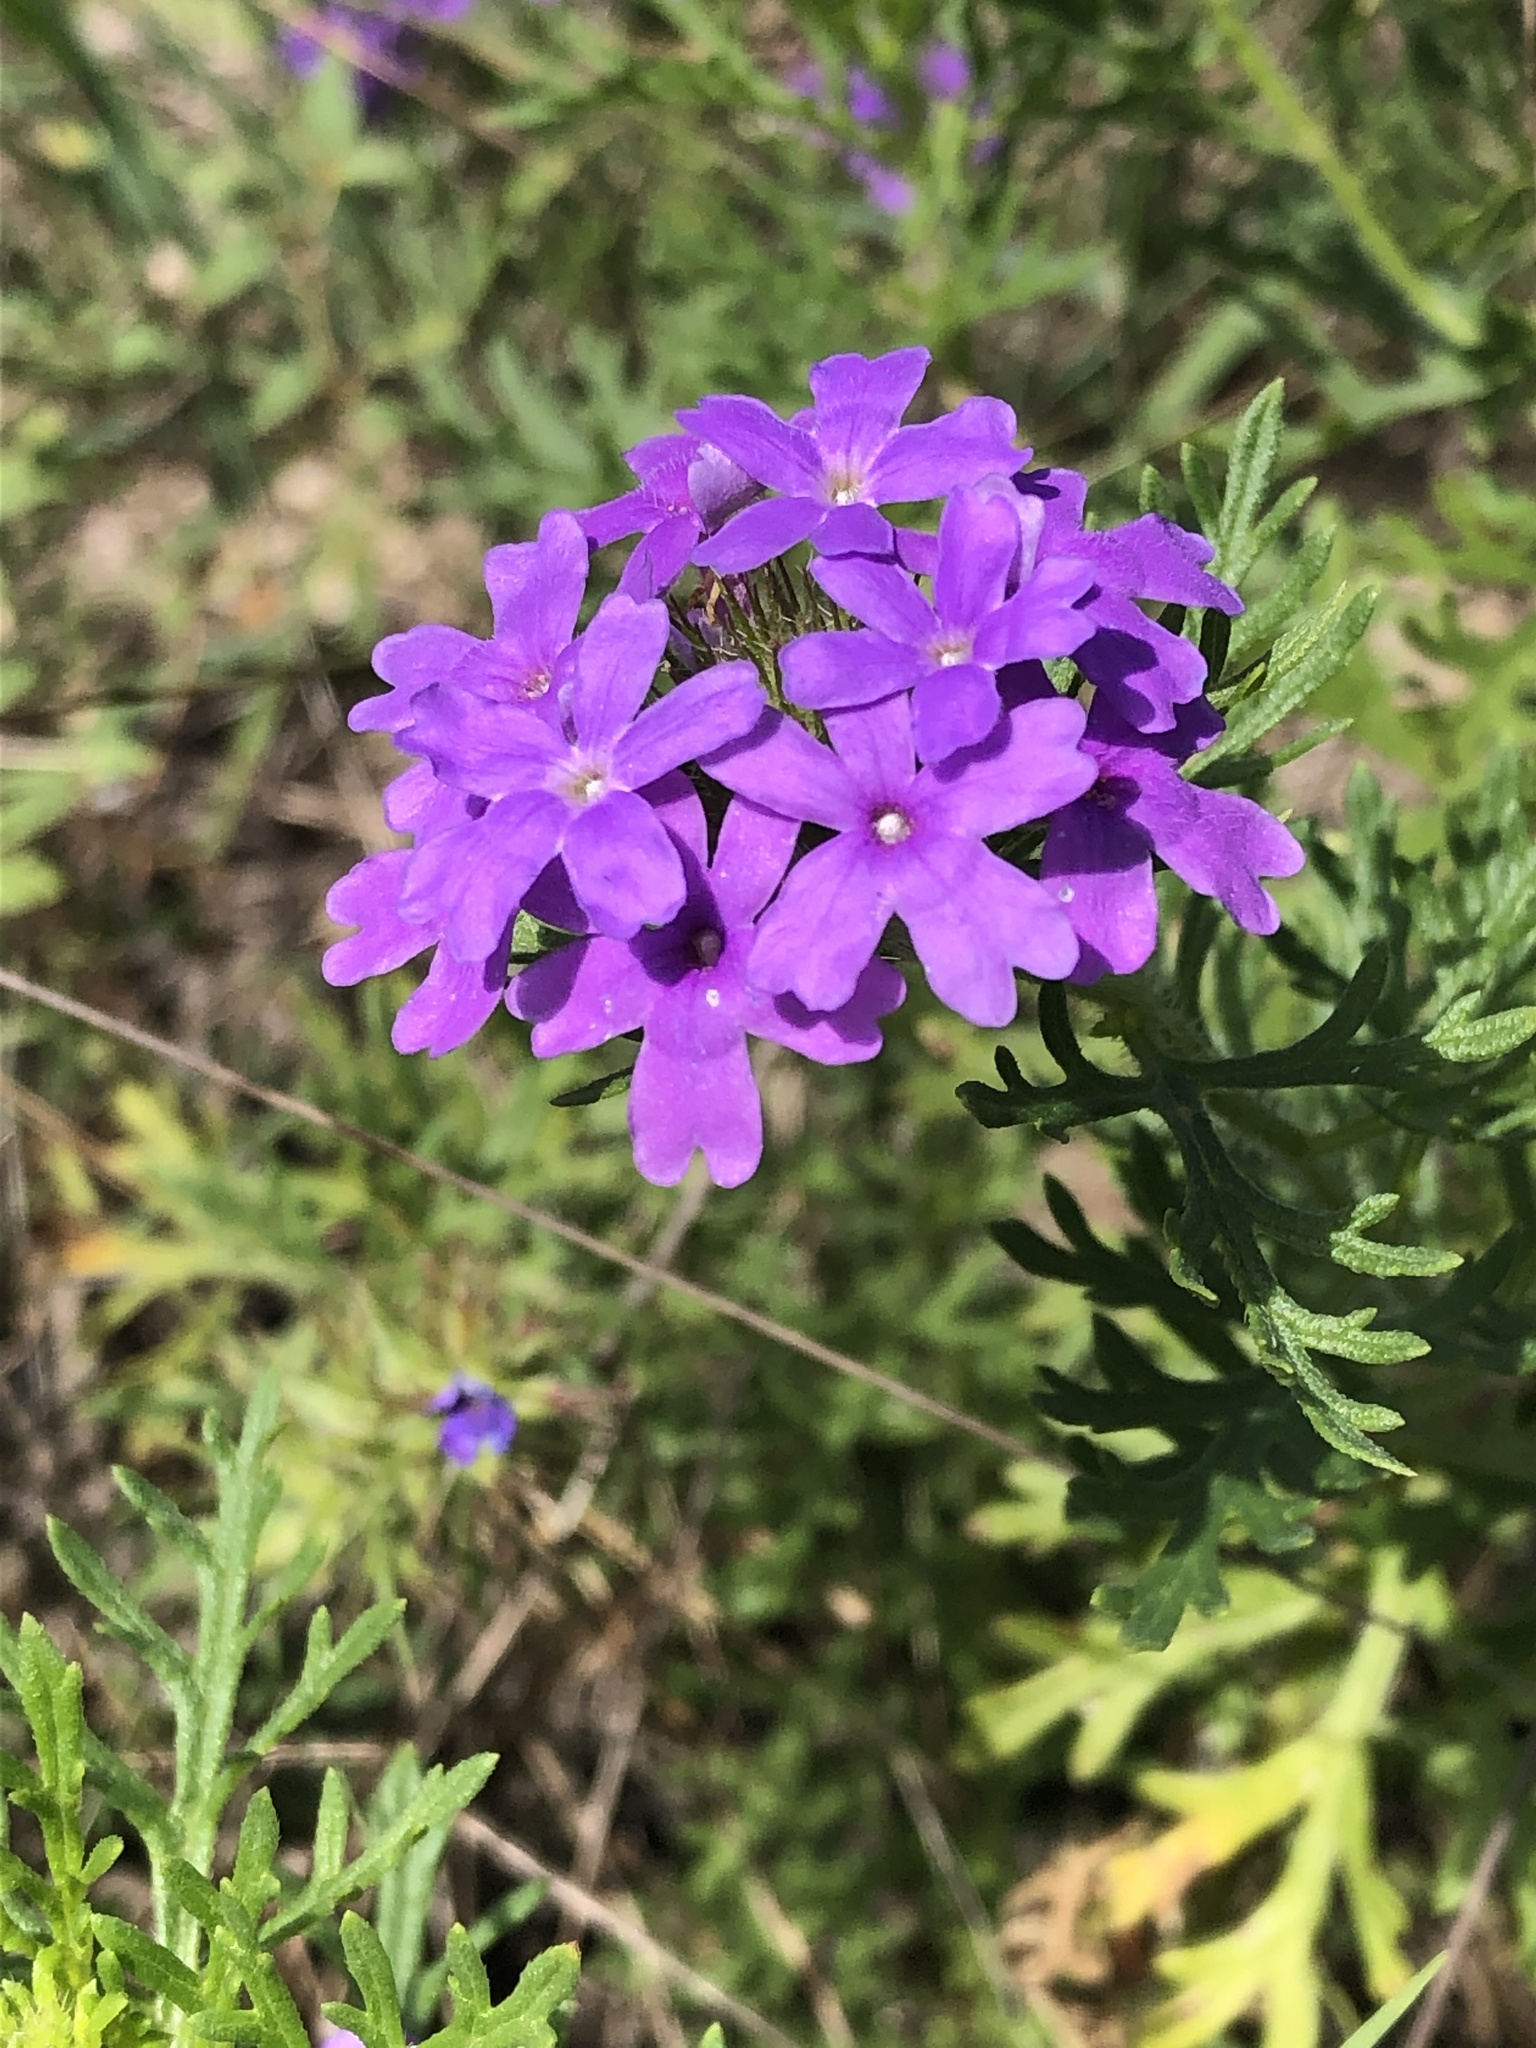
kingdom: Plantae
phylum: Tracheophyta
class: Magnoliopsida
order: Lamiales
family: Verbenaceae
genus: Verbena
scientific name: Verbena bipinnatifida
